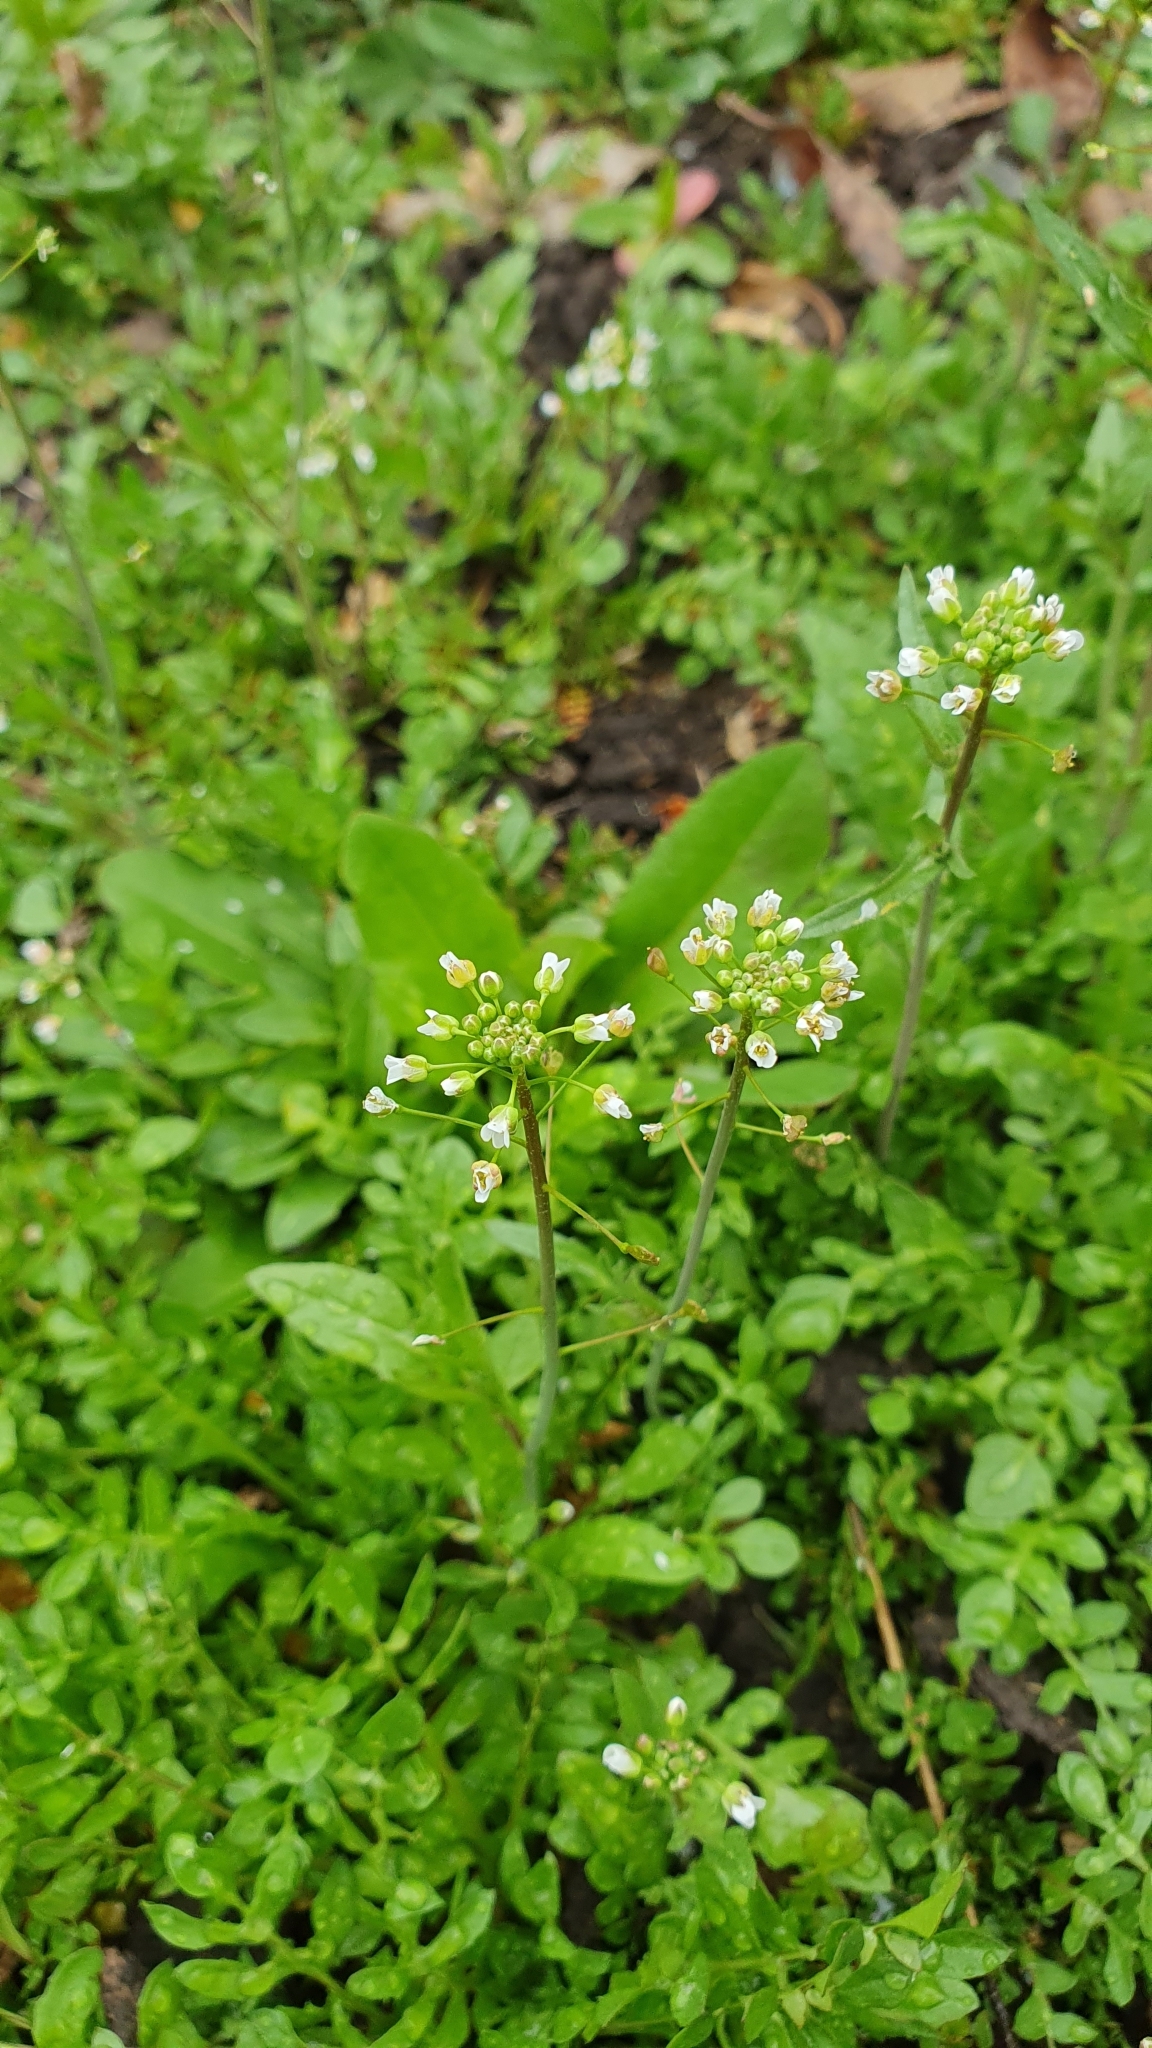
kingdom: Plantae
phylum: Tracheophyta
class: Magnoliopsida
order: Brassicales
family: Brassicaceae
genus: Capsella
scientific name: Capsella bursa-pastoris
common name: Shepherd's purse
